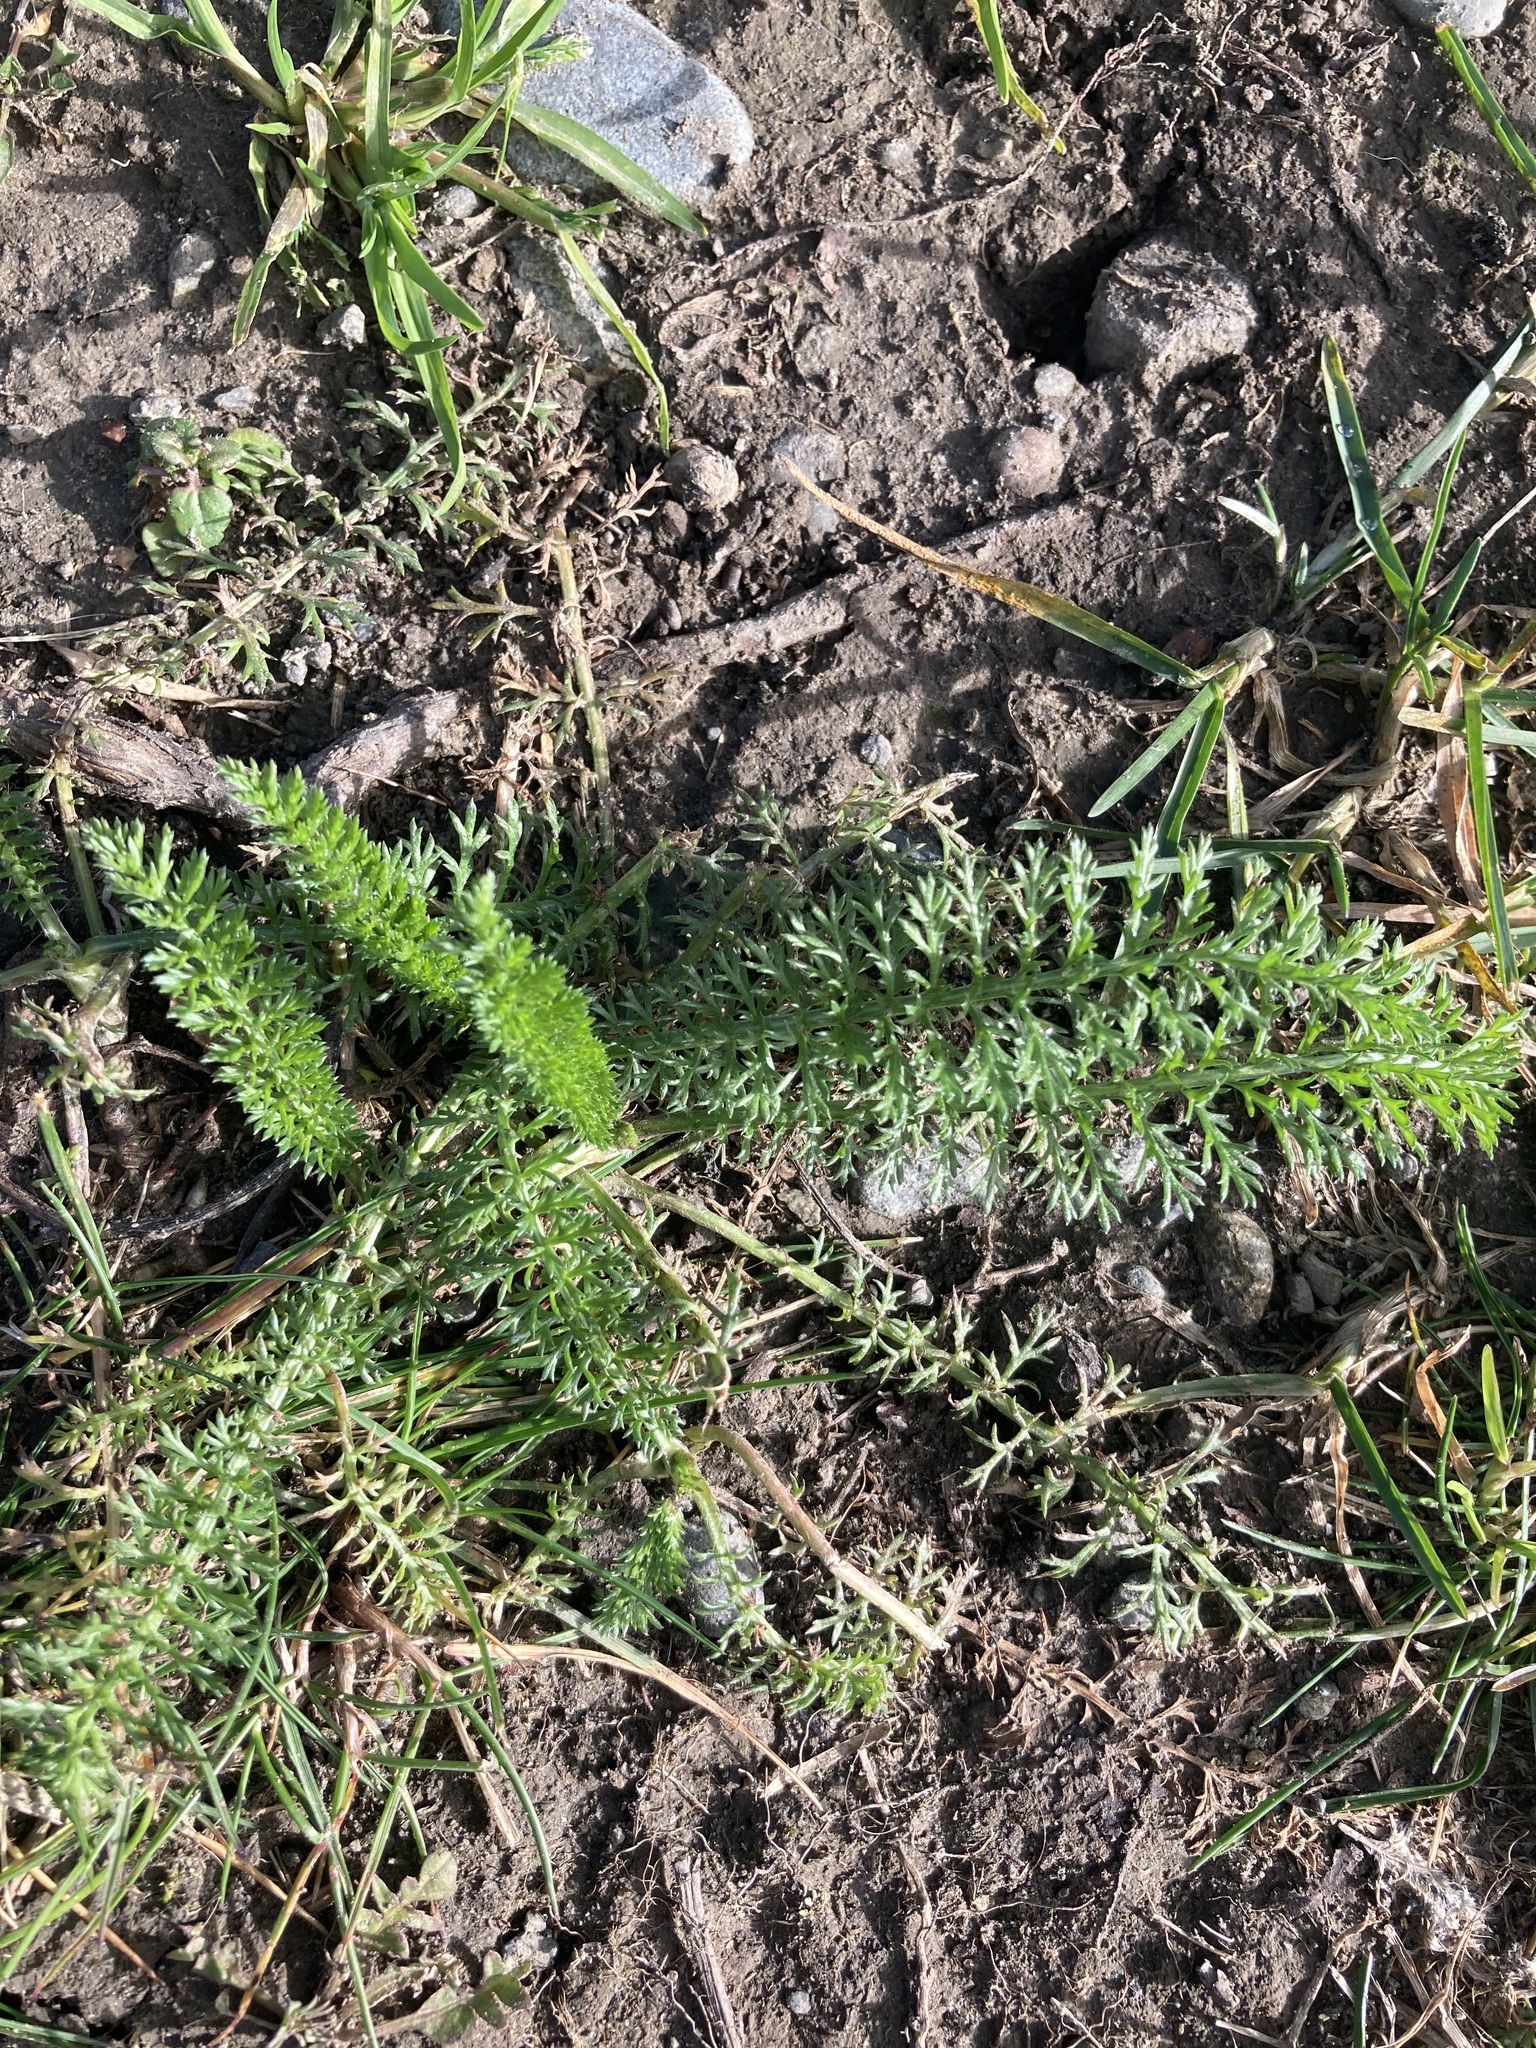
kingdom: Plantae
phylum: Tracheophyta
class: Magnoliopsida
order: Asterales
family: Asteraceae
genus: Achillea
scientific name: Achillea millefolium
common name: Yarrow
